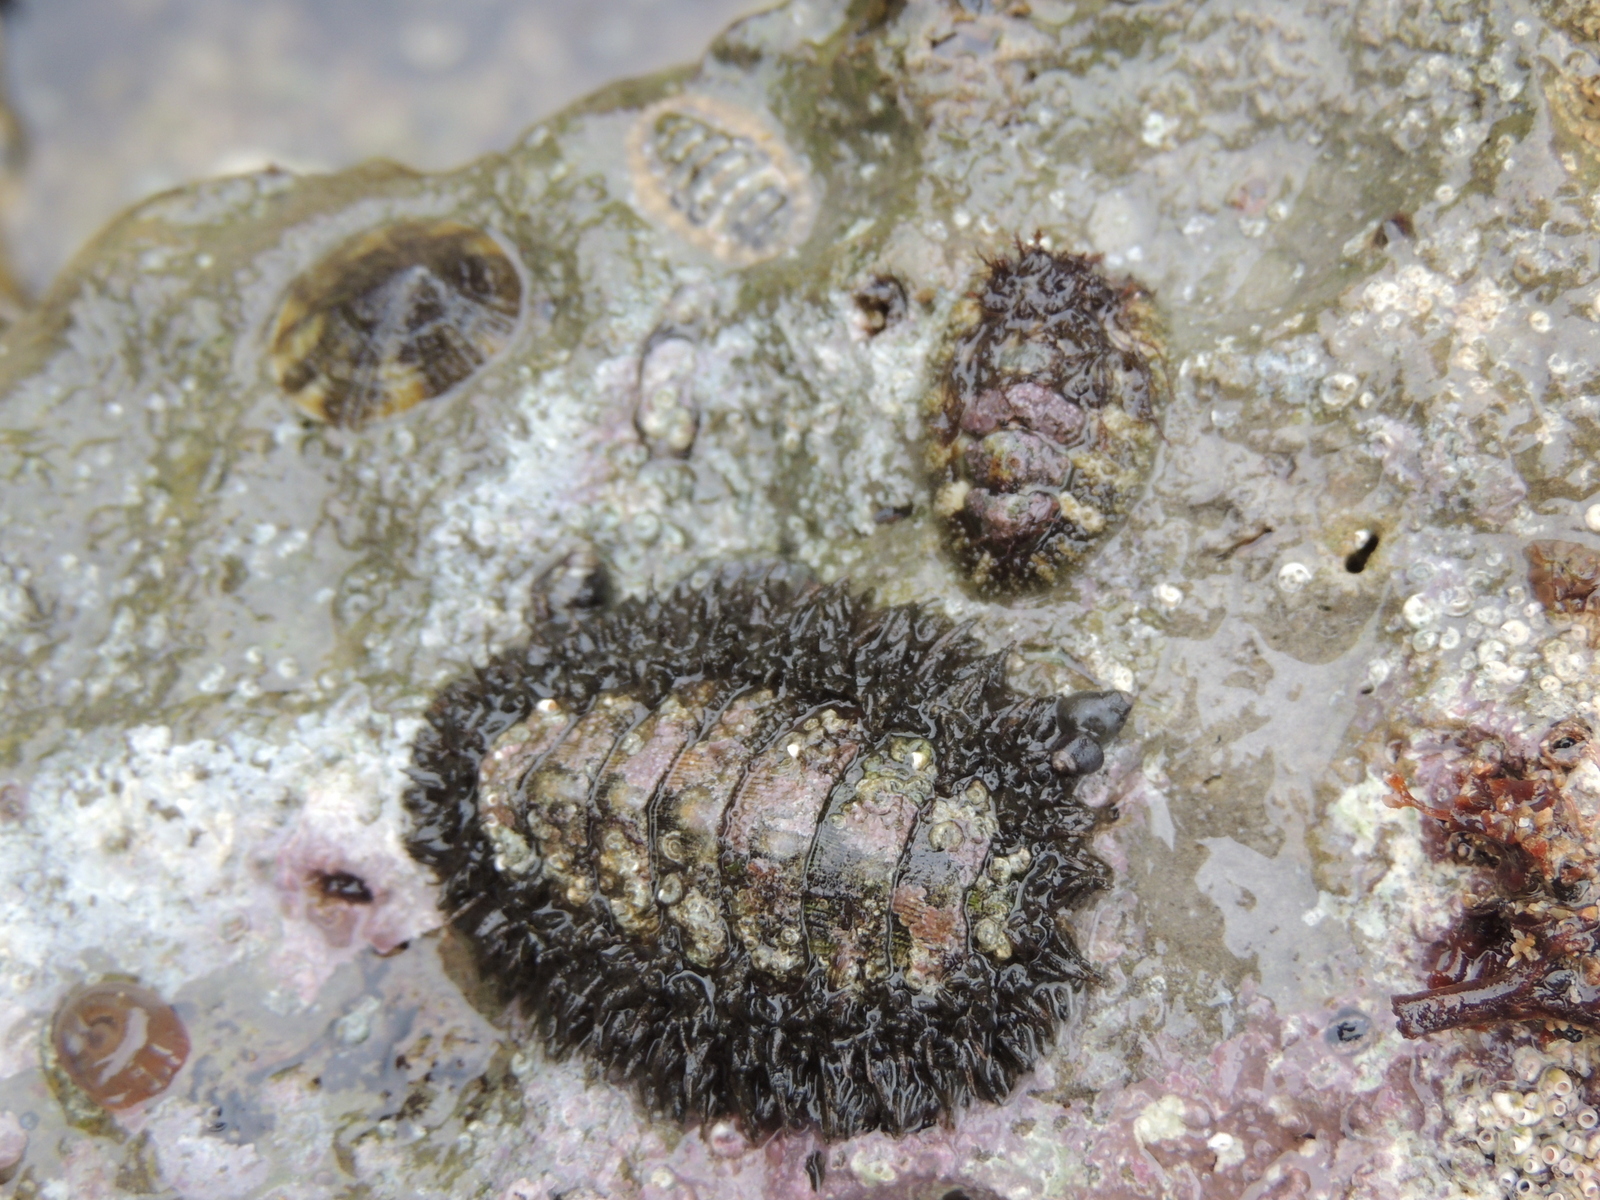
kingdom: Animalia
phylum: Mollusca
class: Polyplacophora
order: Chitonida
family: Mopaliidae
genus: Mopalia
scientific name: Mopalia muscosa
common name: Mossy chiton
